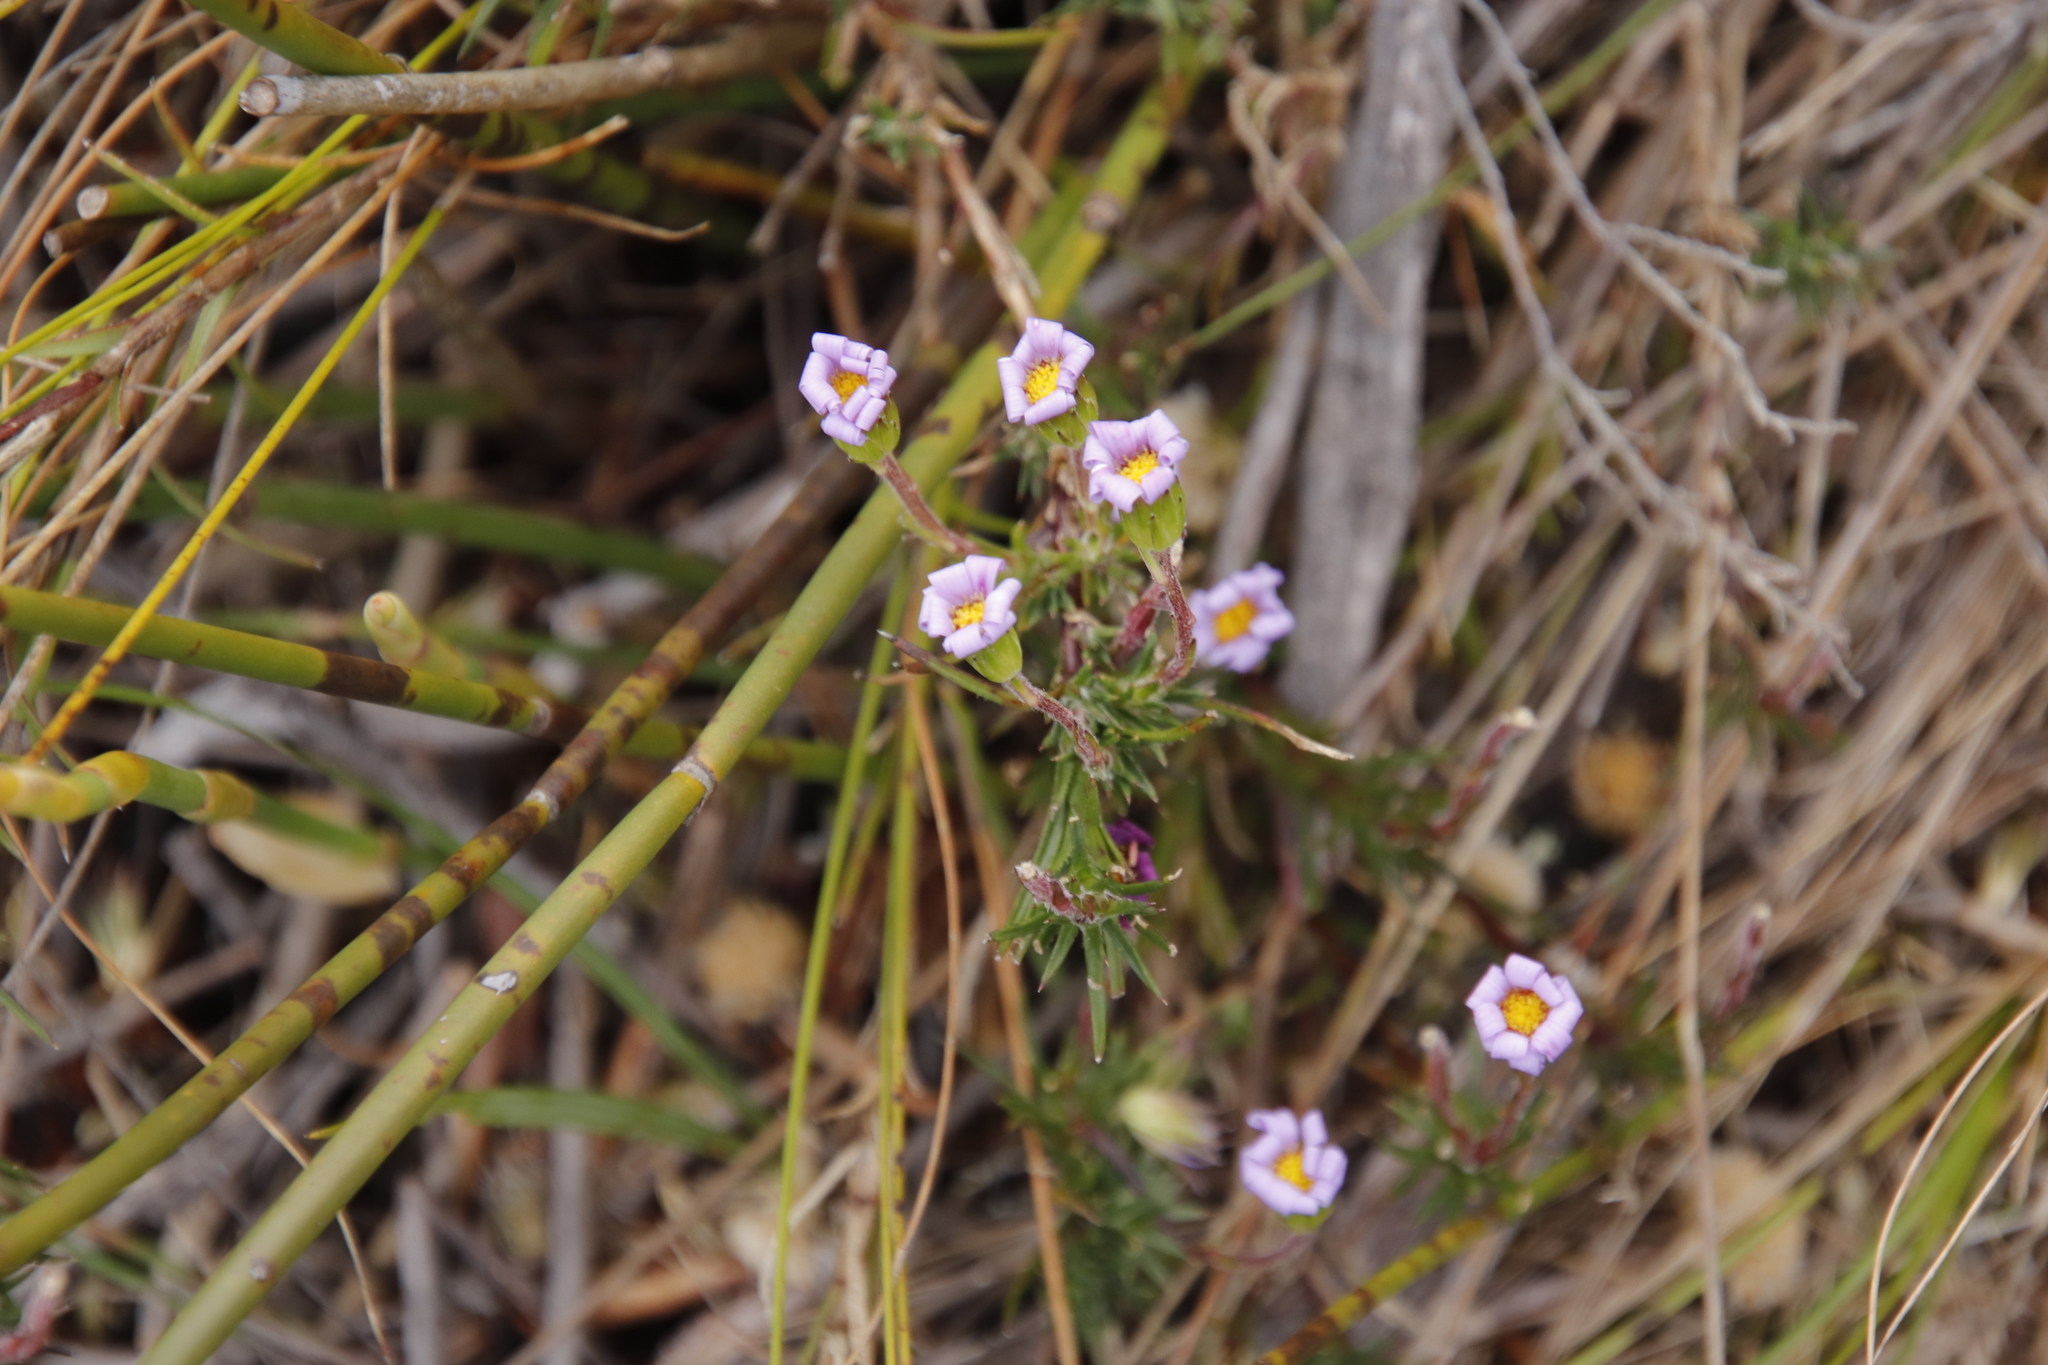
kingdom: Plantae
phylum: Tracheophyta
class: Magnoliopsida
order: Asterales
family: Asteraceae
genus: Zyrphelis
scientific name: Zyrphelis taxifolia
